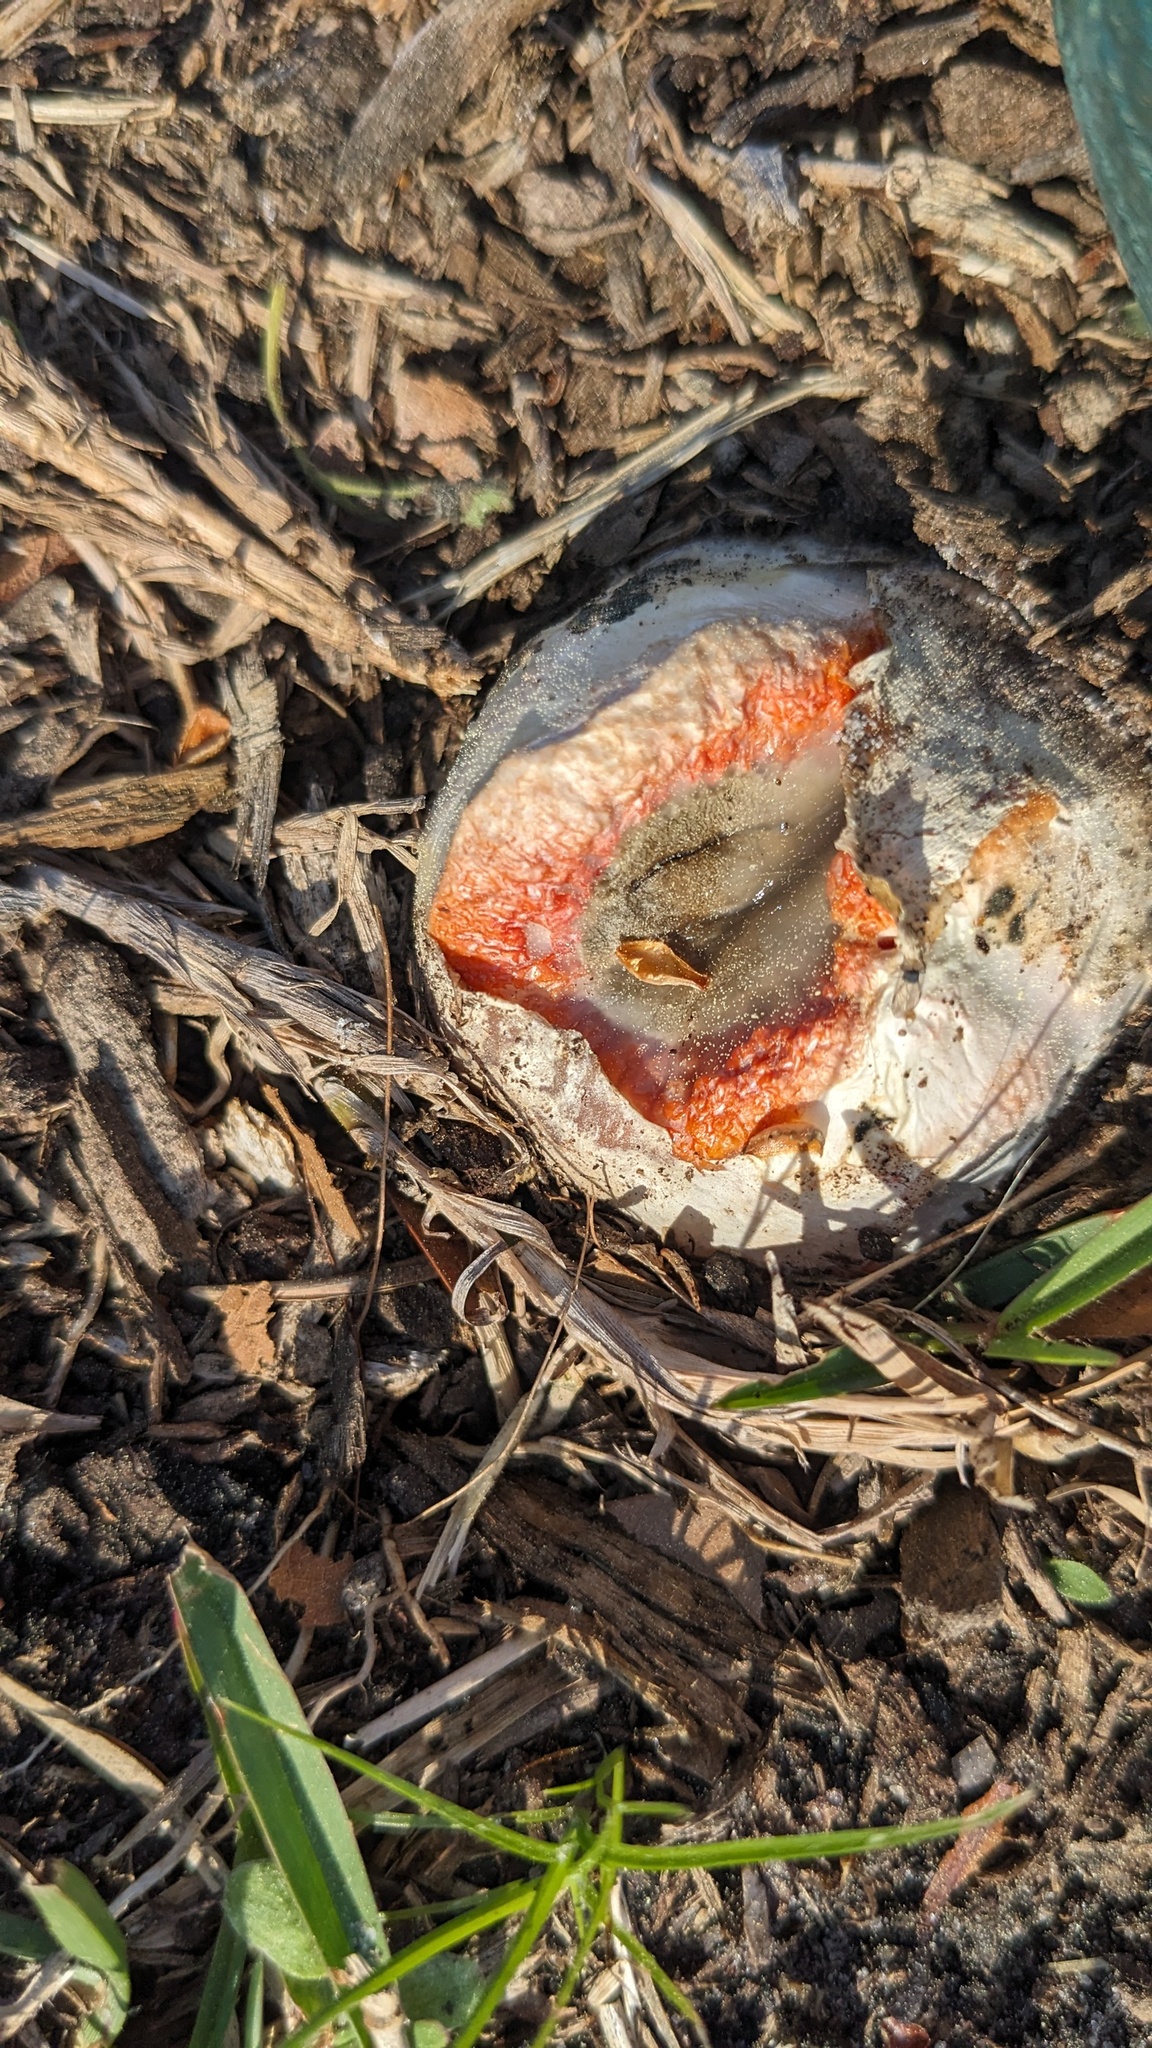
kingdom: Fungi
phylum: Basidiomycota
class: Agaricomycetes
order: Phallales
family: Phallaceae
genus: Clathrus
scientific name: Clathrus columnatus
